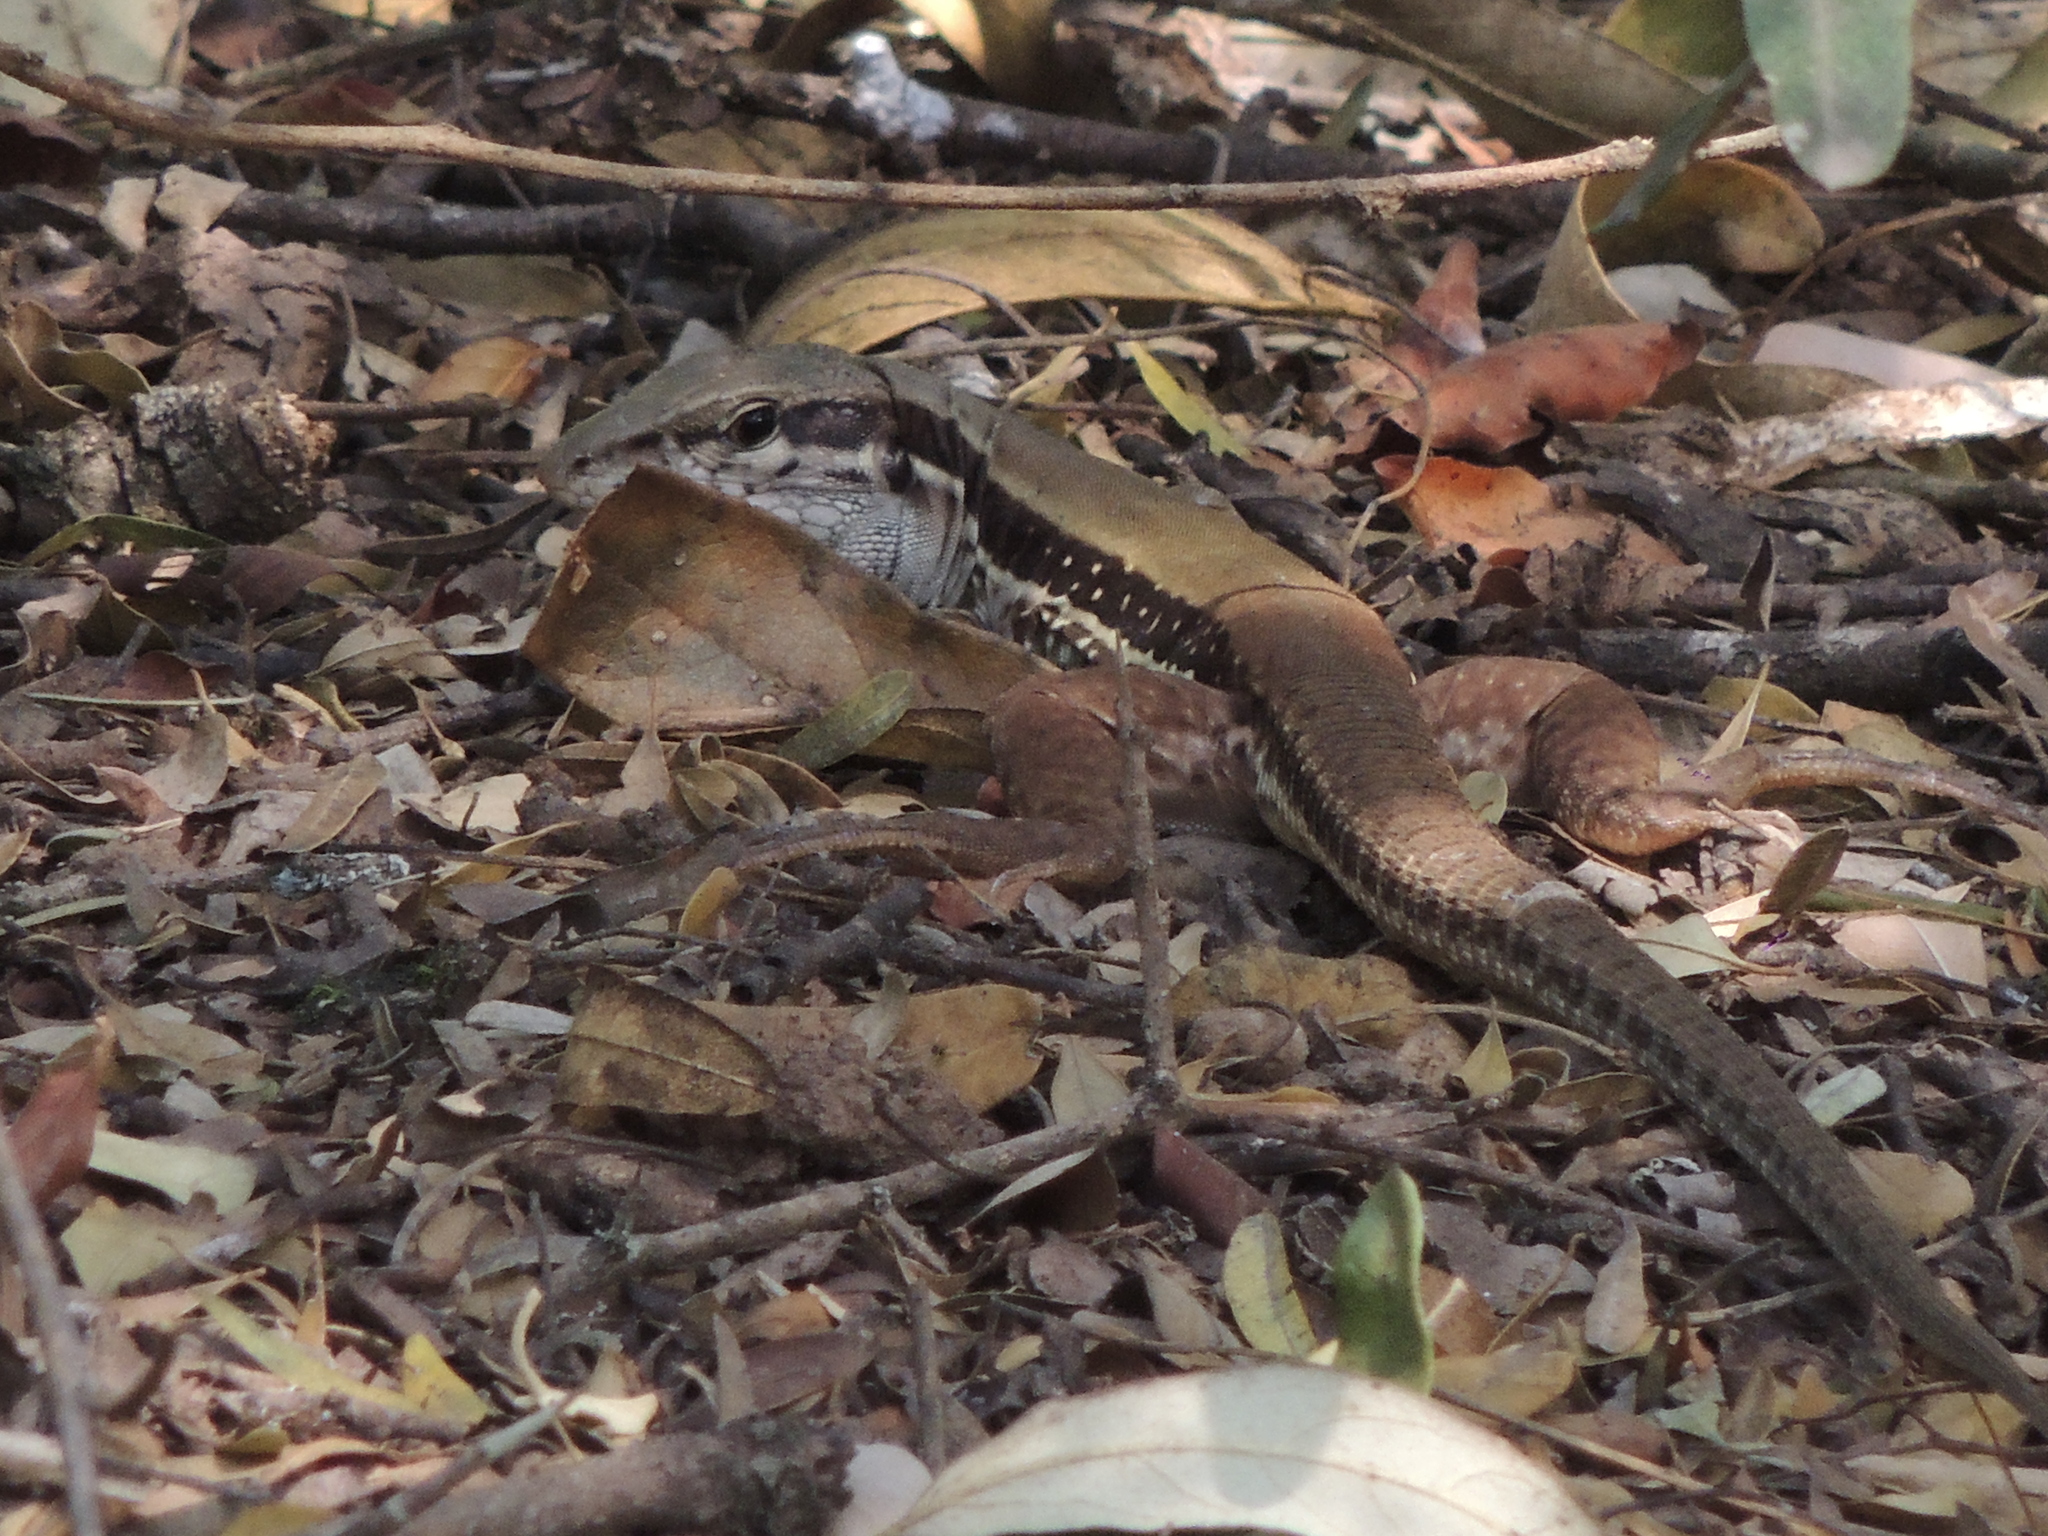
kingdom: Animalia
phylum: Chordata
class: Squamata
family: Teiidae
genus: Ameiva
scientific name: Ameiva ameiva
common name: Giant ameiva
